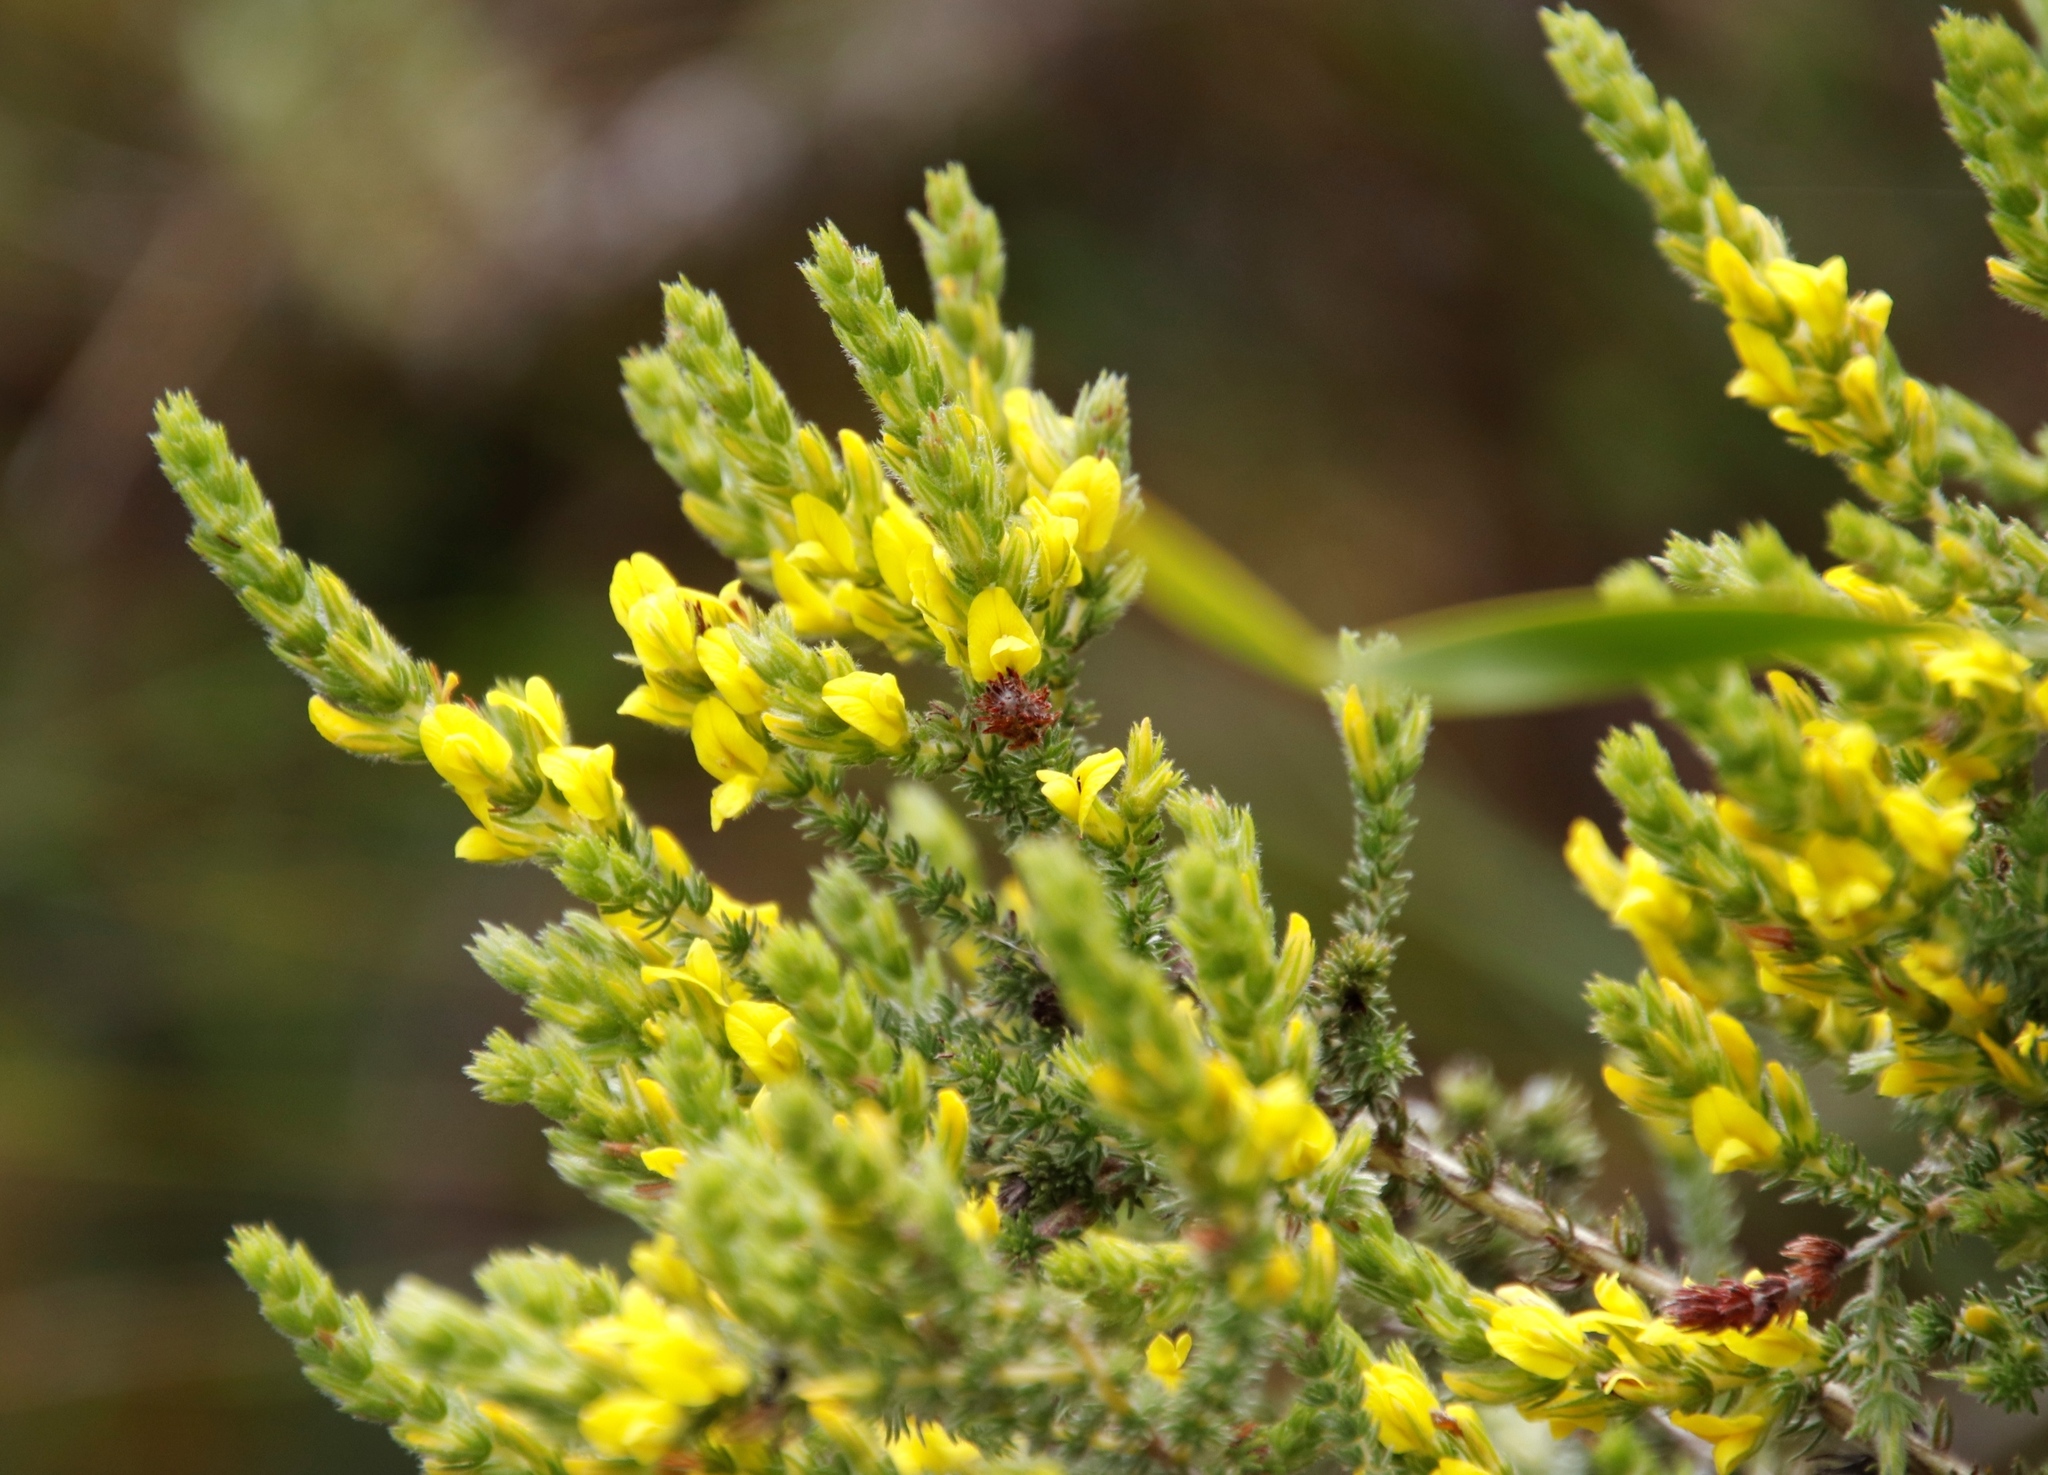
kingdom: Plantae
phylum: Tracheophyta
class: Magnoliopsida
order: Fabales
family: Fabaceae
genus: Aspalathus
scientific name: Aspalathus ericifolia
